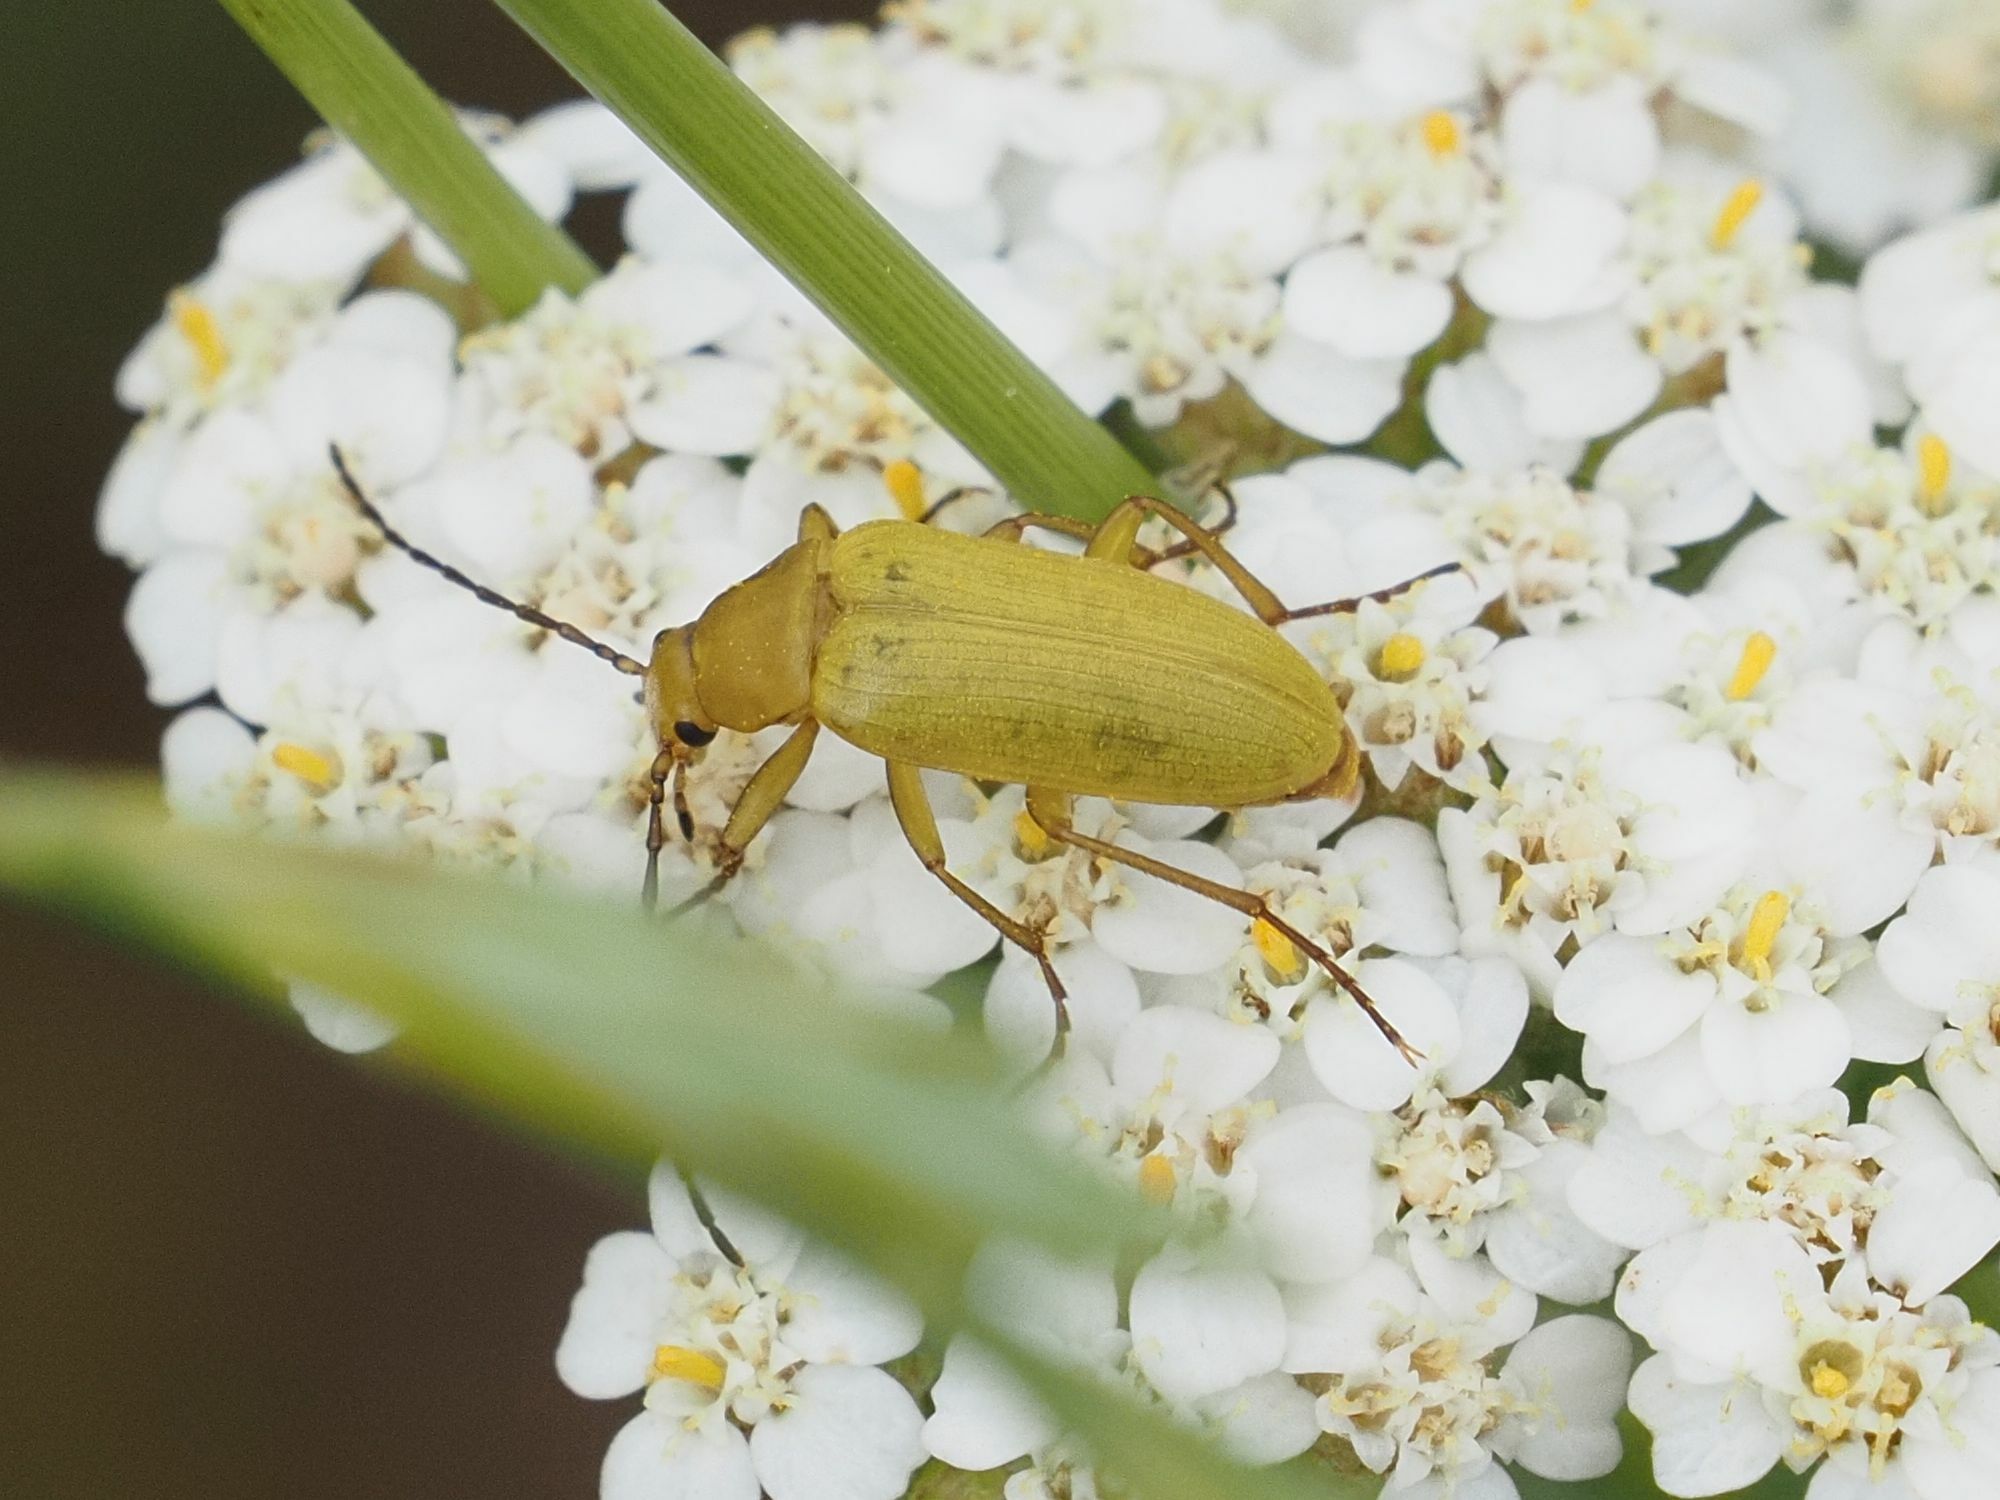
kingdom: Animalia
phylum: Arthropoda
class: Insecta
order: Coleoptera
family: Tenebrionidae
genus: Cteniopus
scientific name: Cteniopus sulphureus
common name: Sulphur beetle
